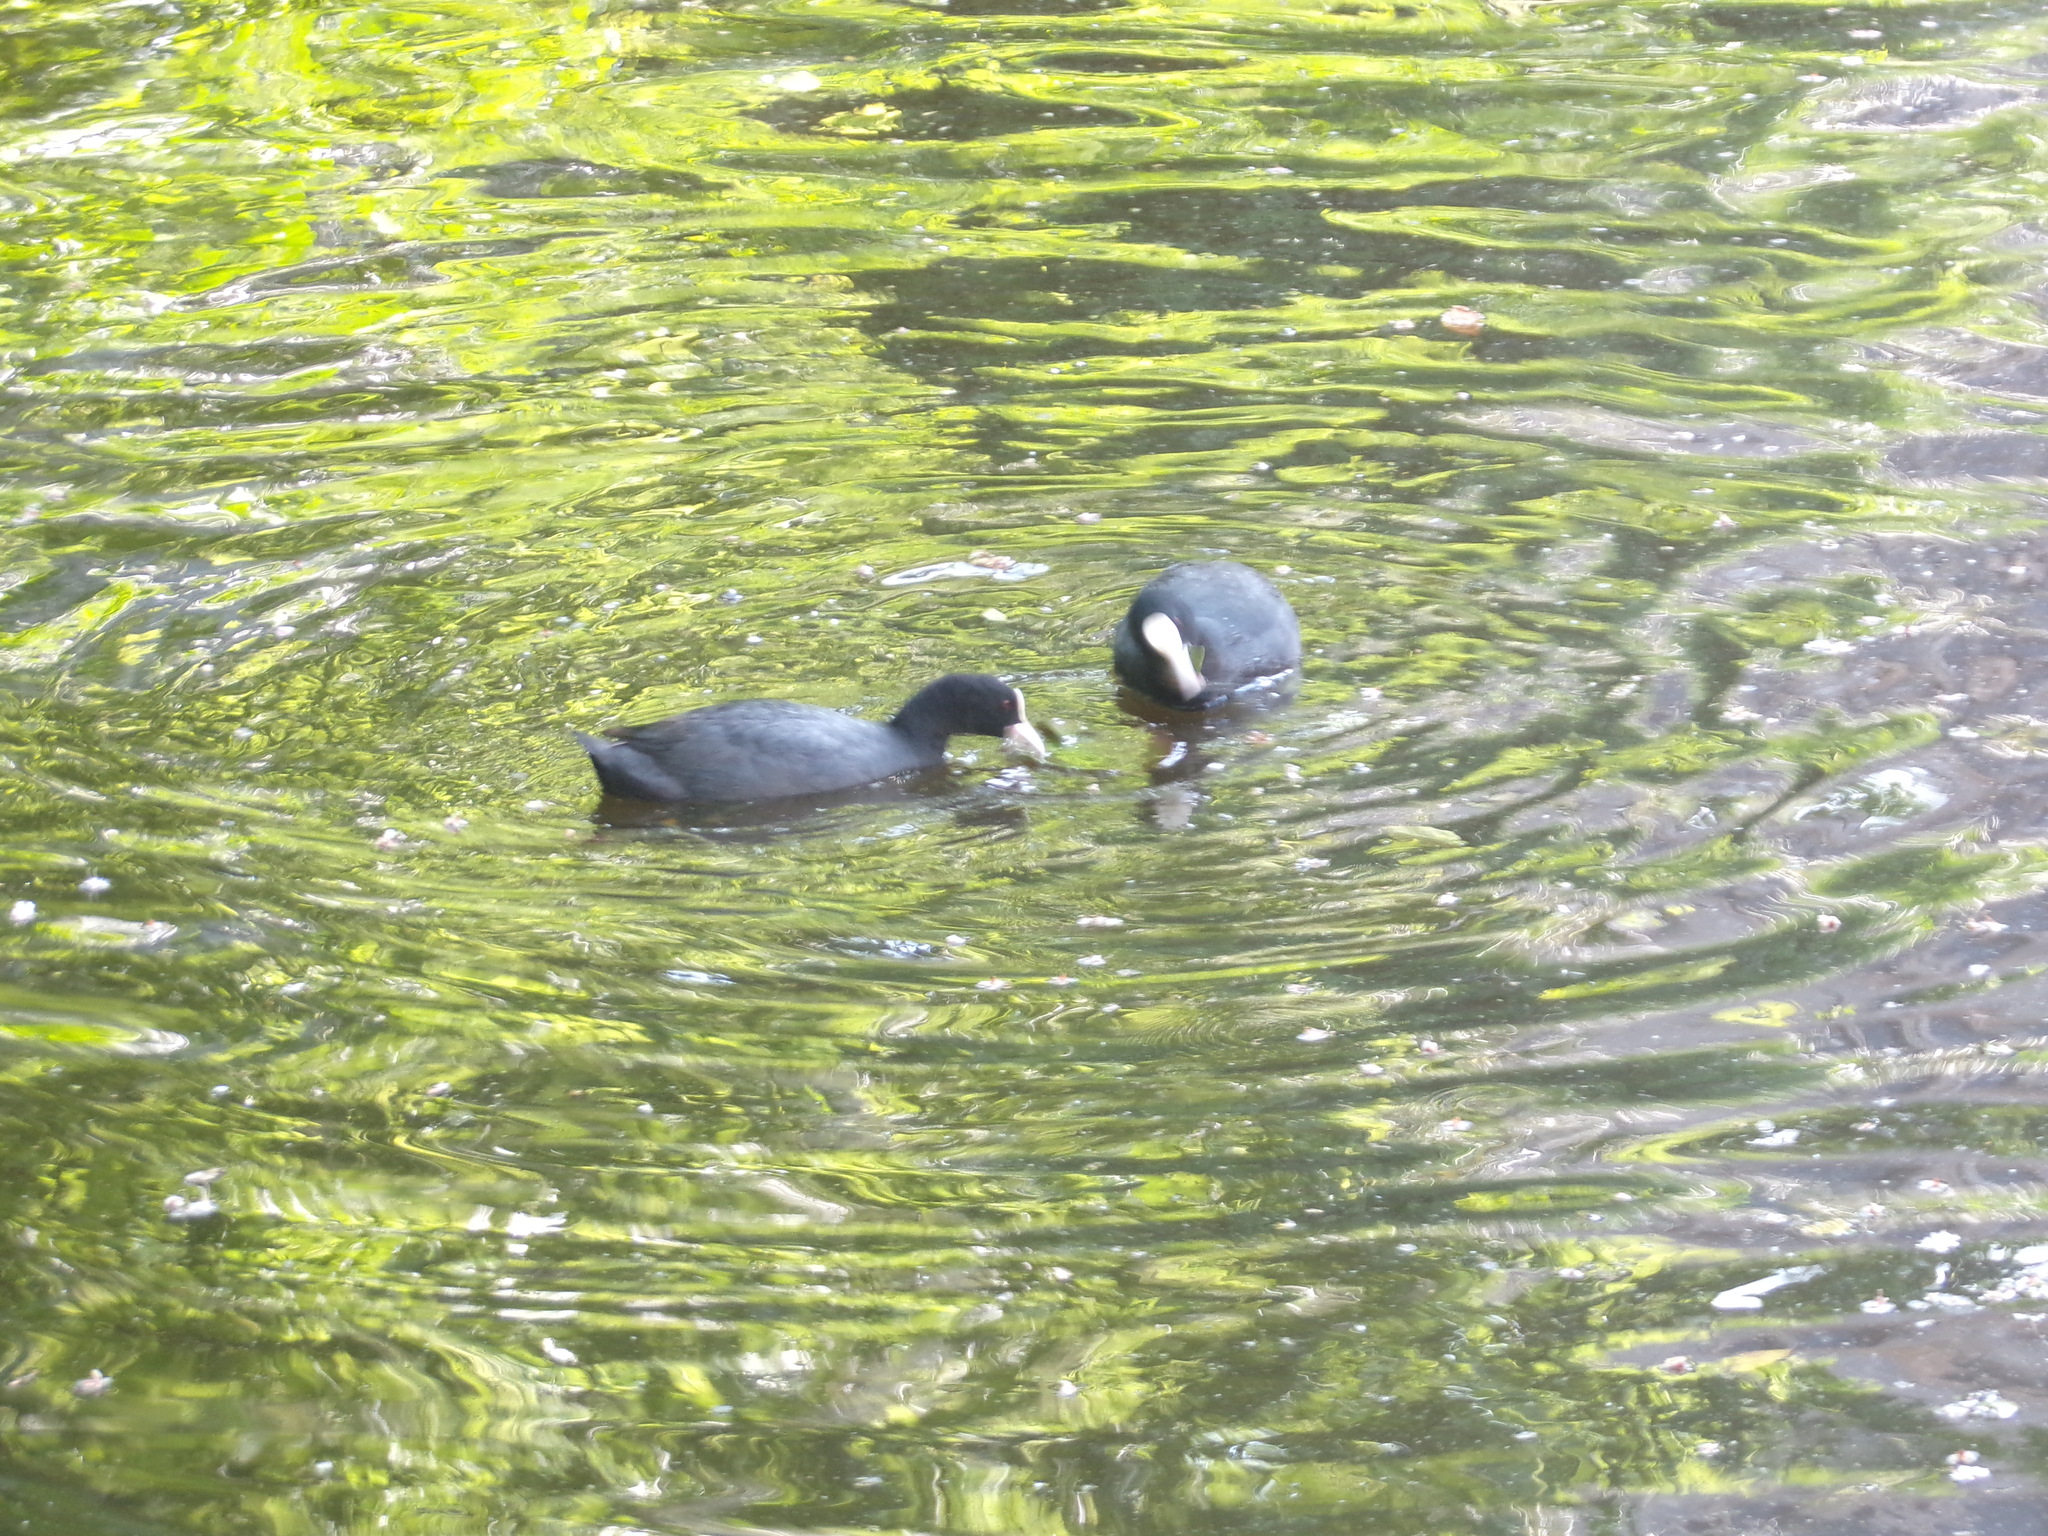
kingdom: Animalia
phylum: Chordata
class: Aves
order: Gruiformes
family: Rallidae
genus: Fulica
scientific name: Fulica atra
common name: Eurasian coot
